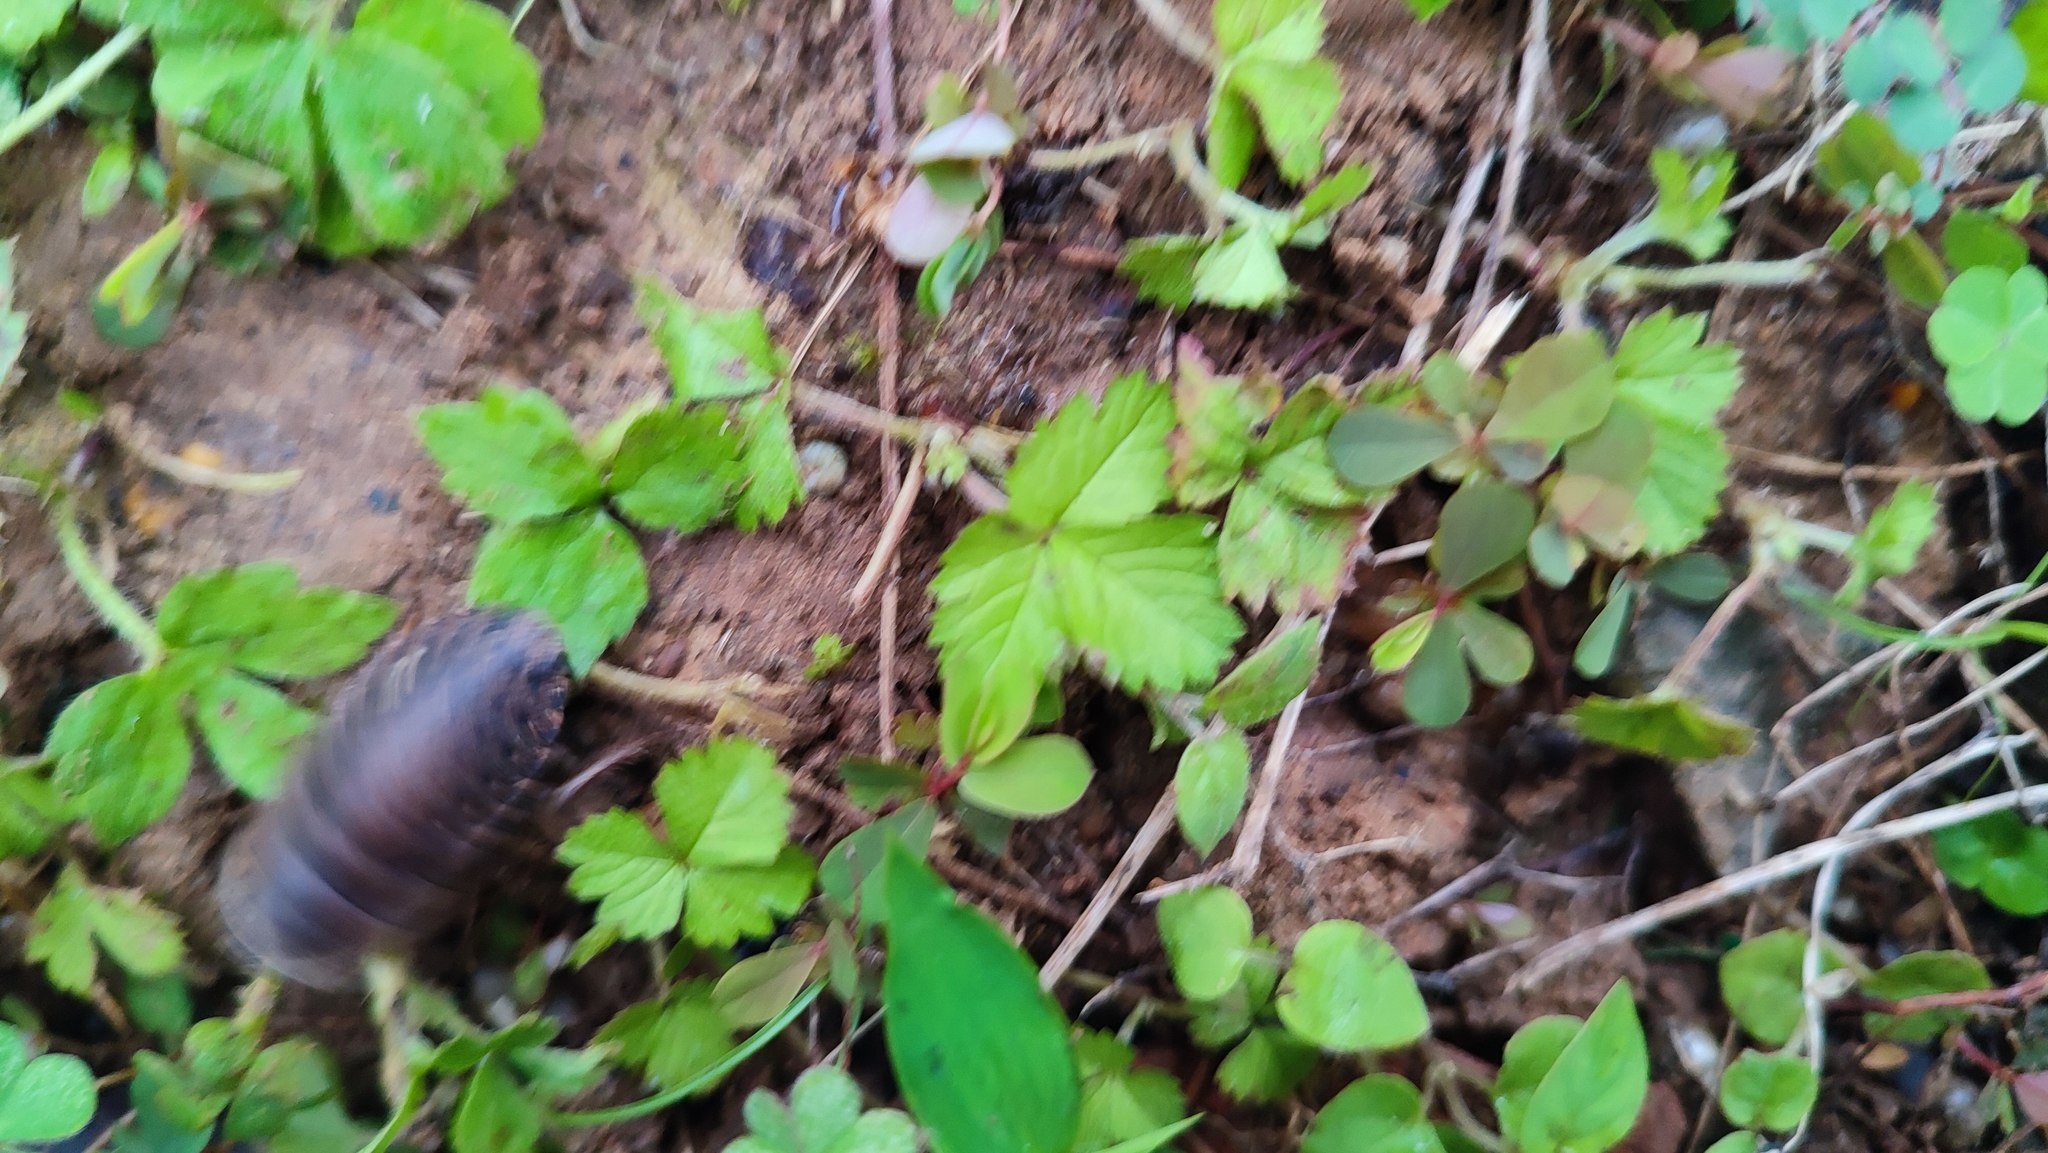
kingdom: Animalia
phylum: Arthropoda
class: Insecta
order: Blattodea
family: Blaberidae
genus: Opisthoplatia
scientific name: Opisthoplatia orientalis
